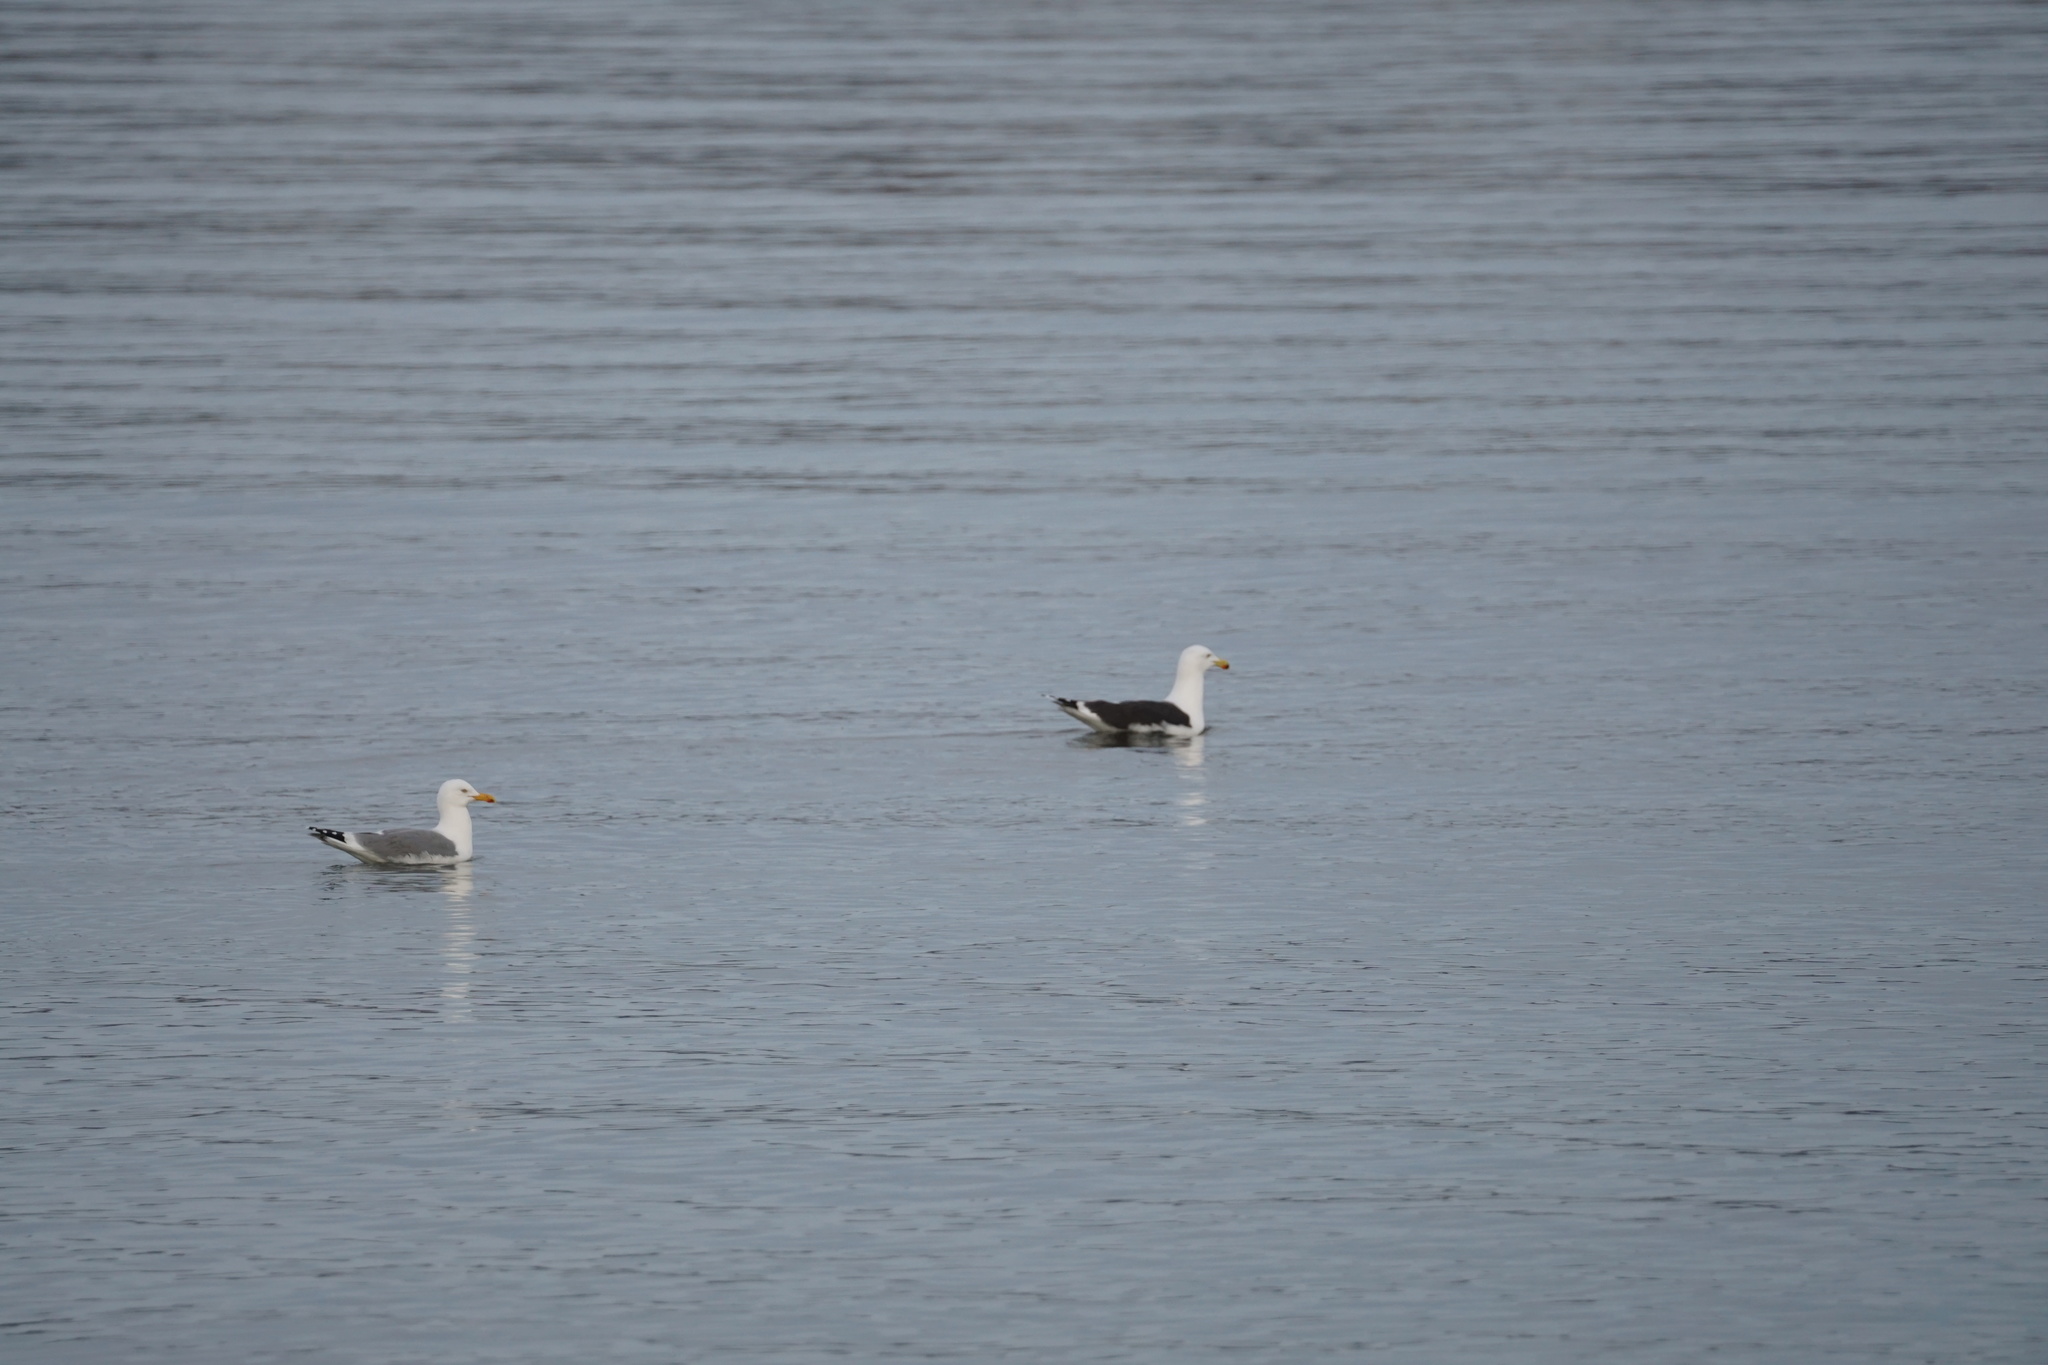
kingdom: Animalia
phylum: Chordata
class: Aves
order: Charadriiformes
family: Laridae
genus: Larus
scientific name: Larus marinus
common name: Great black-backed gull
